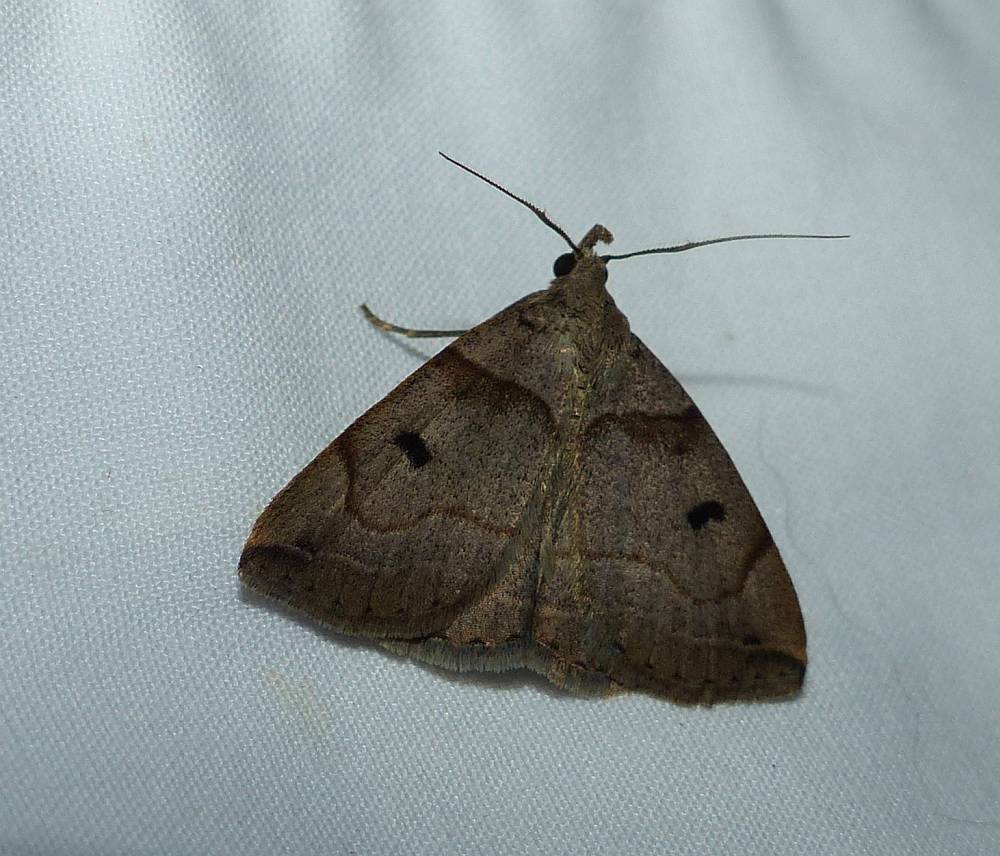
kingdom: Animalia
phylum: Arthropoda
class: Insecta
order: Lepidoptera
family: Erebidae
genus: Zanclognatha
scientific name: Zanclognatha laevigata
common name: Variable fan-foot
